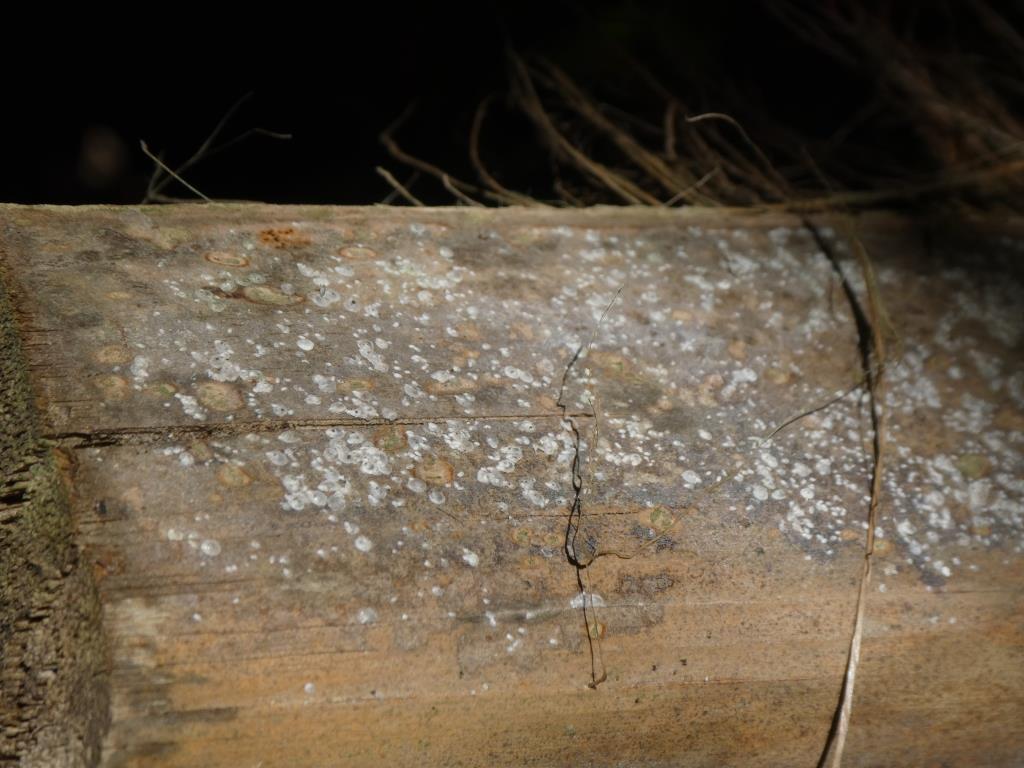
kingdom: Animalia
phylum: Arthropoda
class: Insecta
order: Hemiptera
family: Diaspididae
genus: Comstockiella
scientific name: Comstockiella sabalis
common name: Palmetto scale
